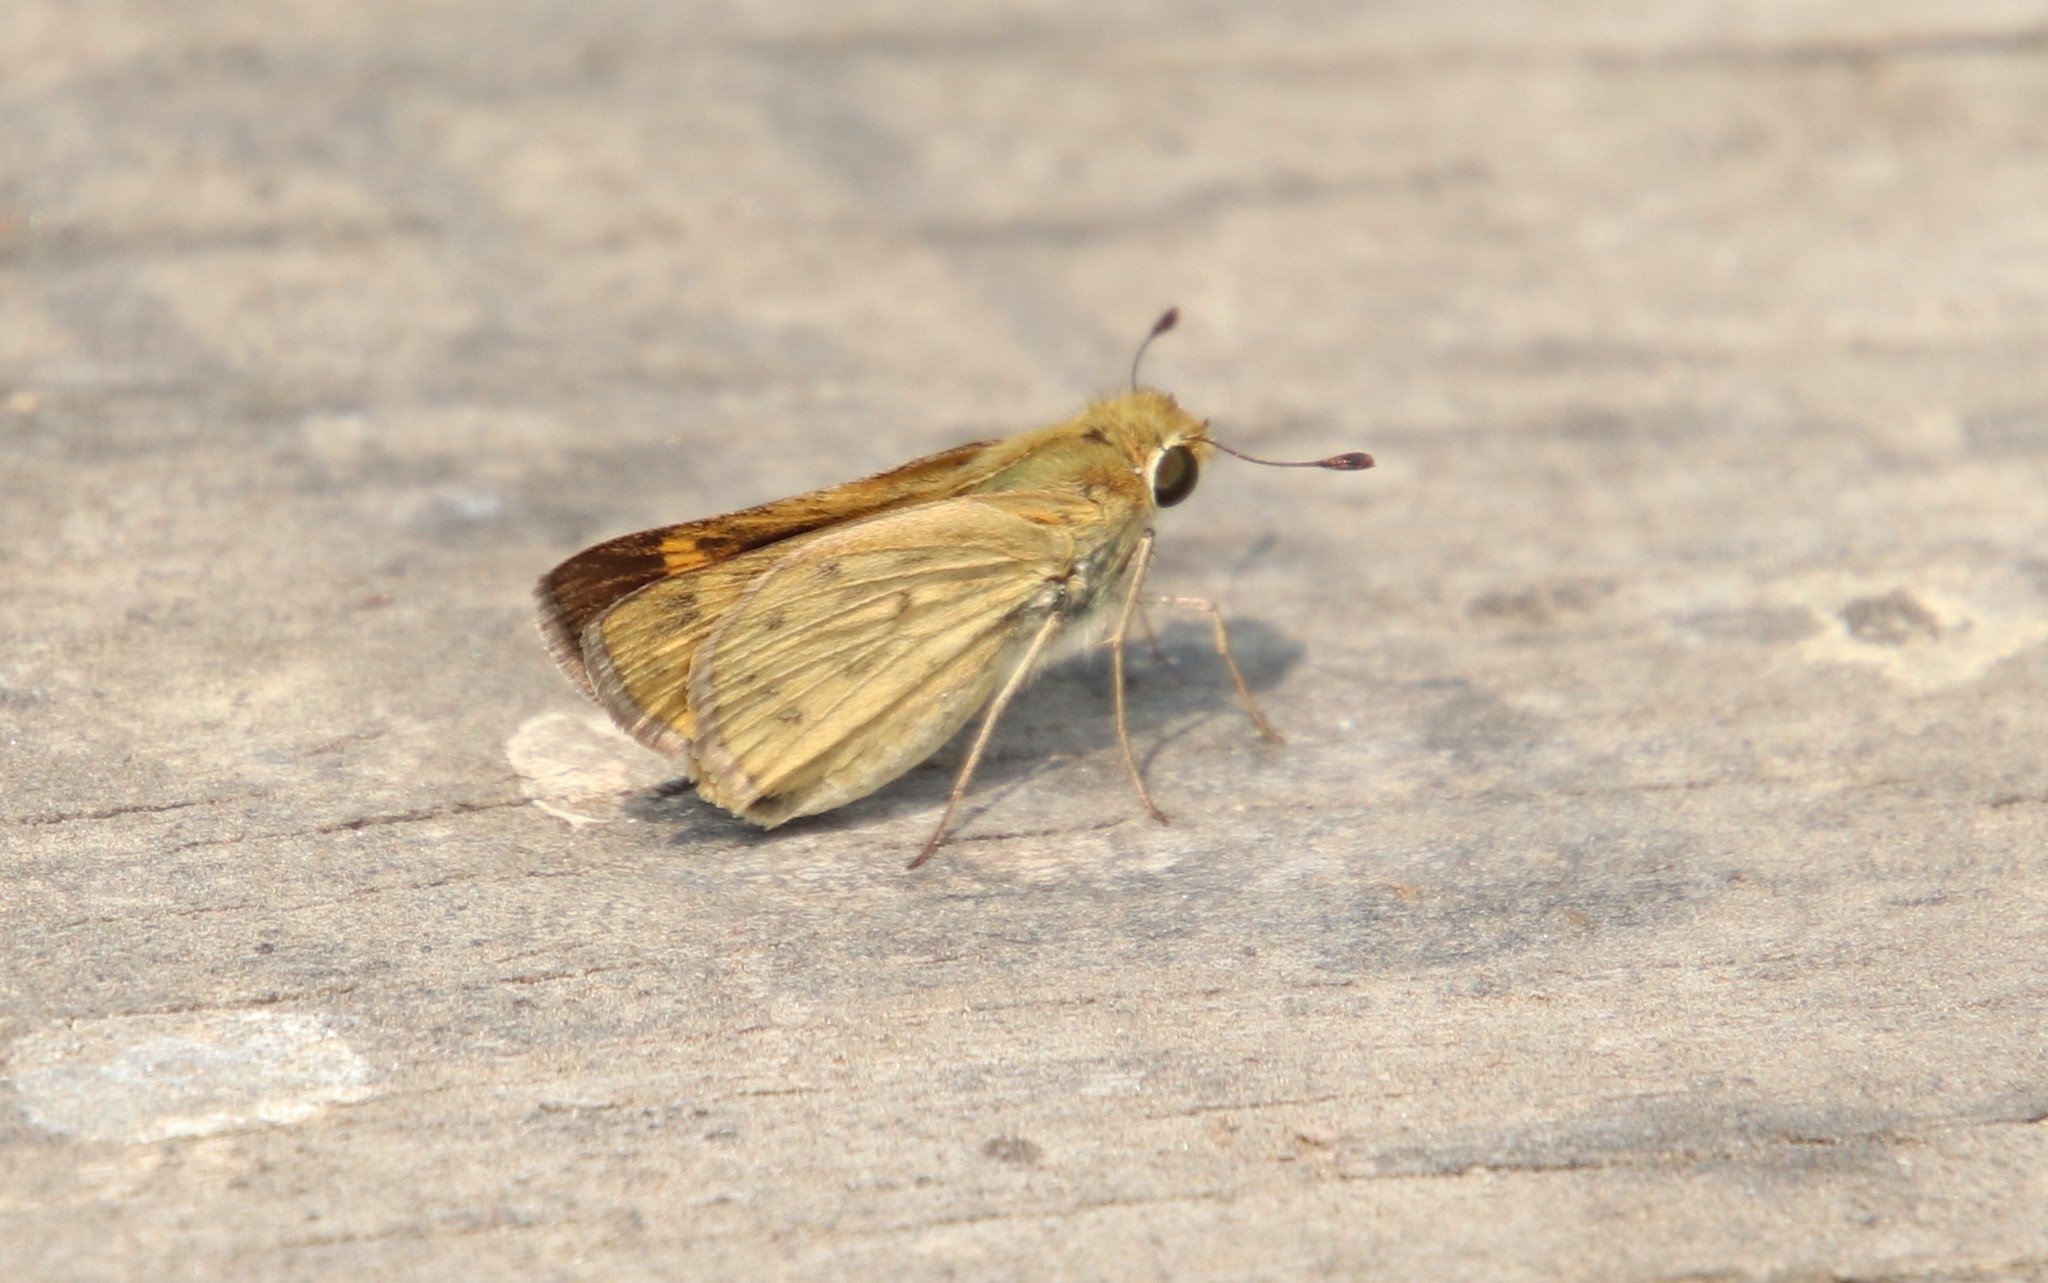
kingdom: Animalia
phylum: Arthropoda
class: Insecta
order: Lepidoptera
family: Hesperiidae
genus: Hylephila
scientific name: Hylephila phyleus
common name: Fiery skipper
